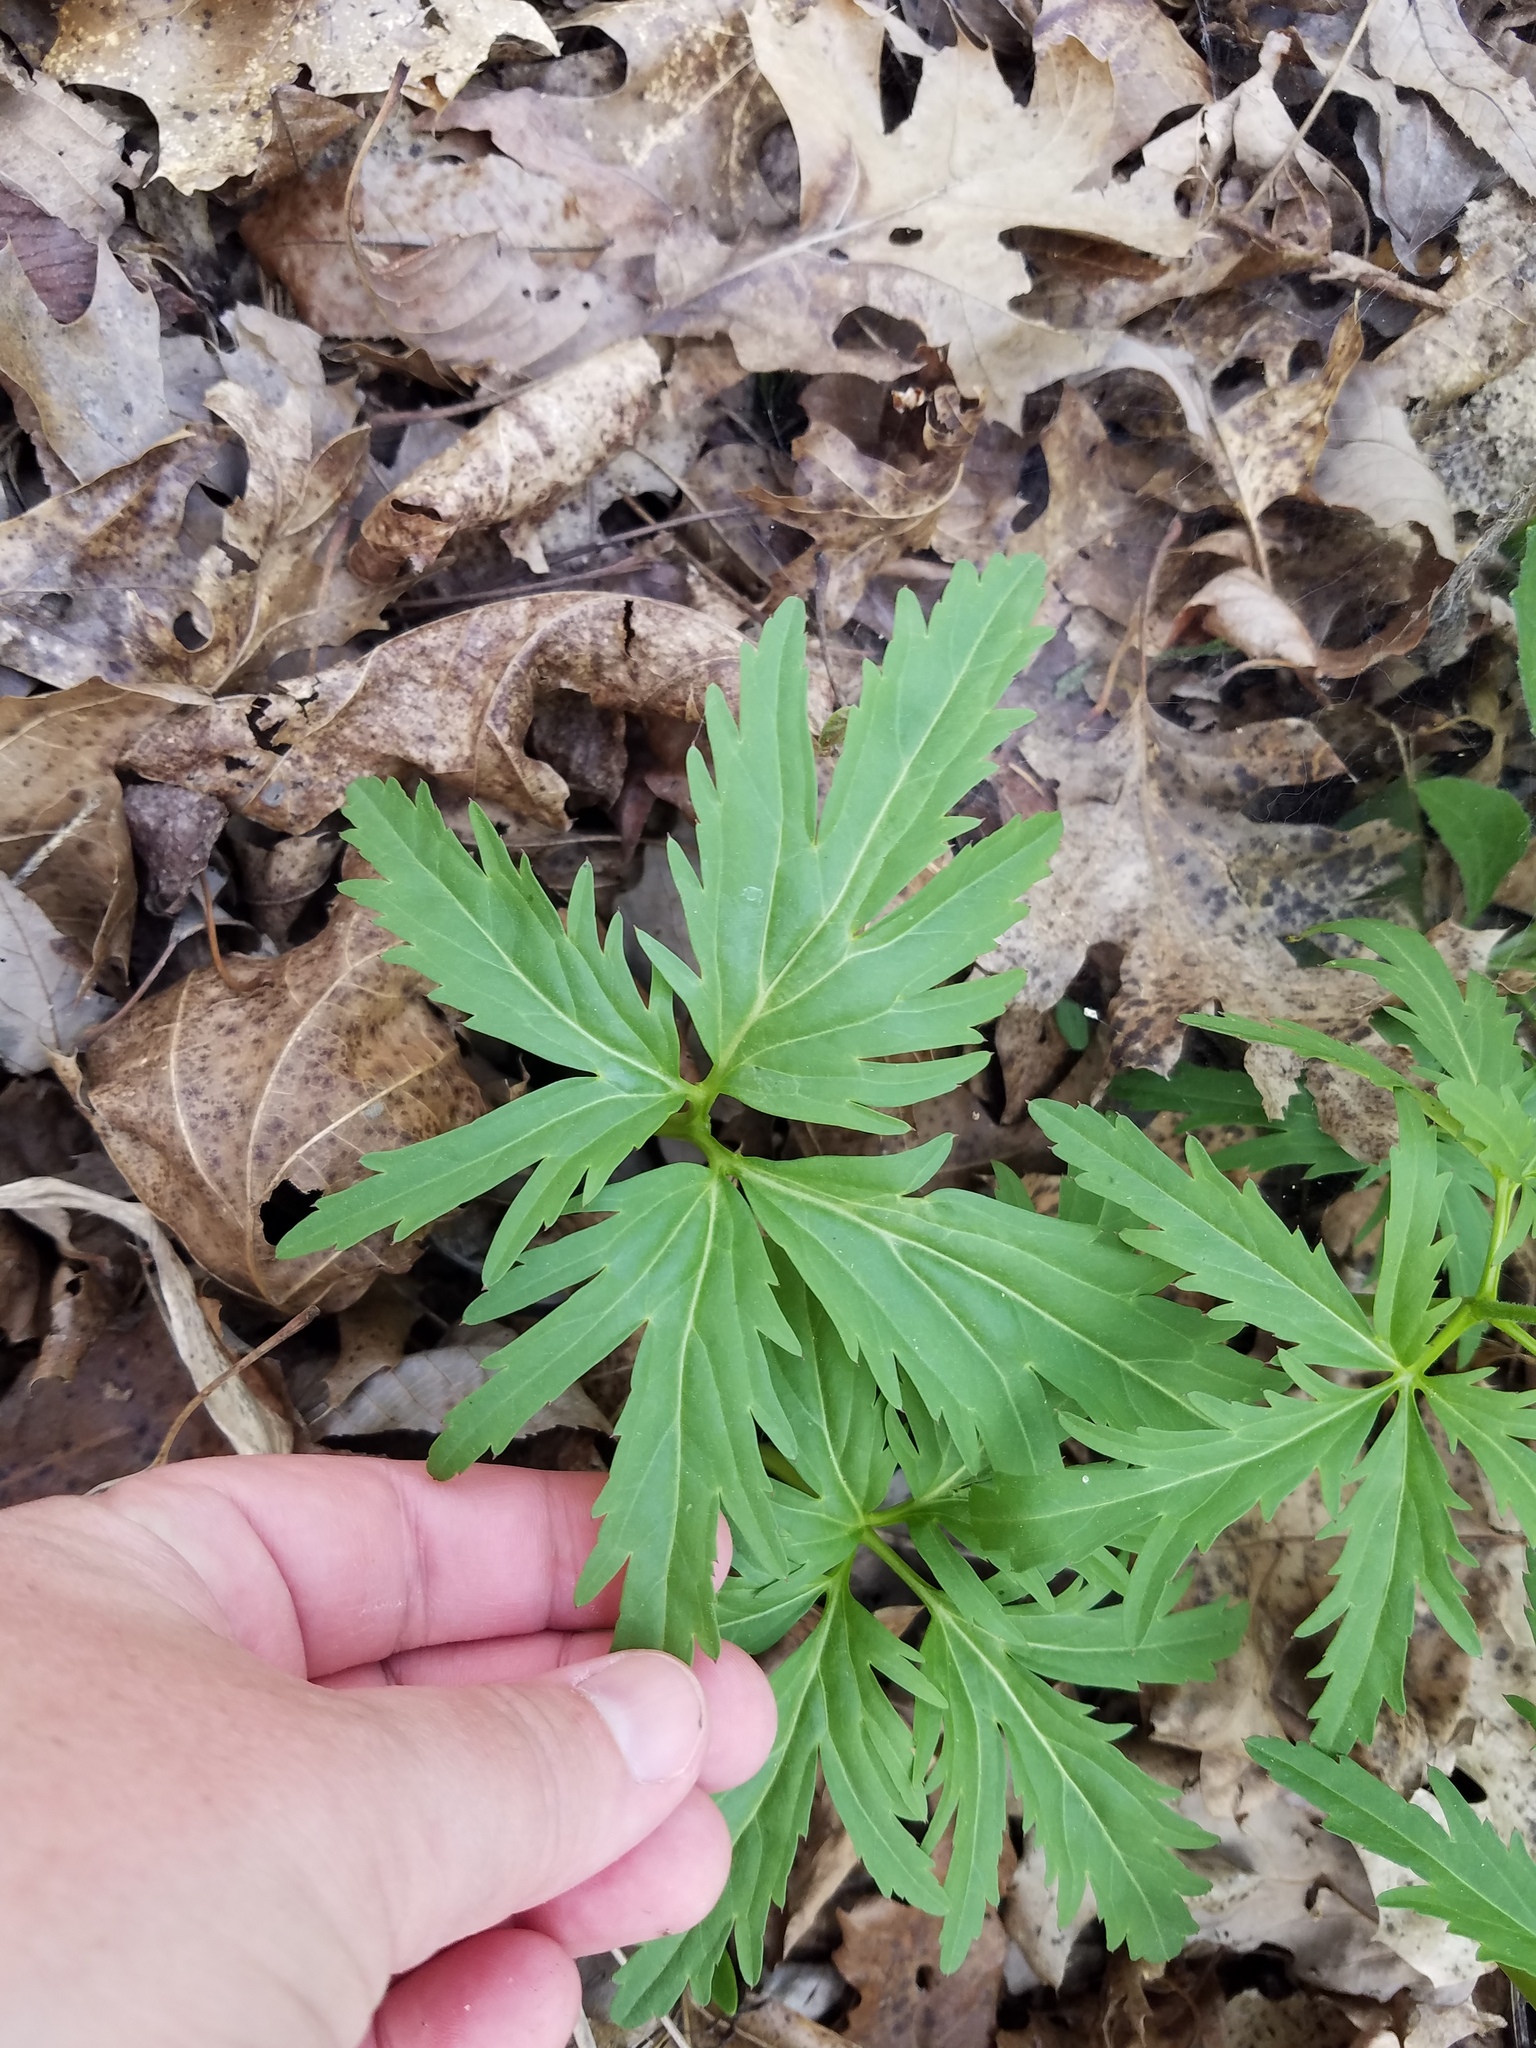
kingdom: Plantae
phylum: Tracheophyta
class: Magnoliopsida
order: Brassicales
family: Brassicaceae
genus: Cardamine
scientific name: Cardamine concatenata
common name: Cut-leaf toothcup
